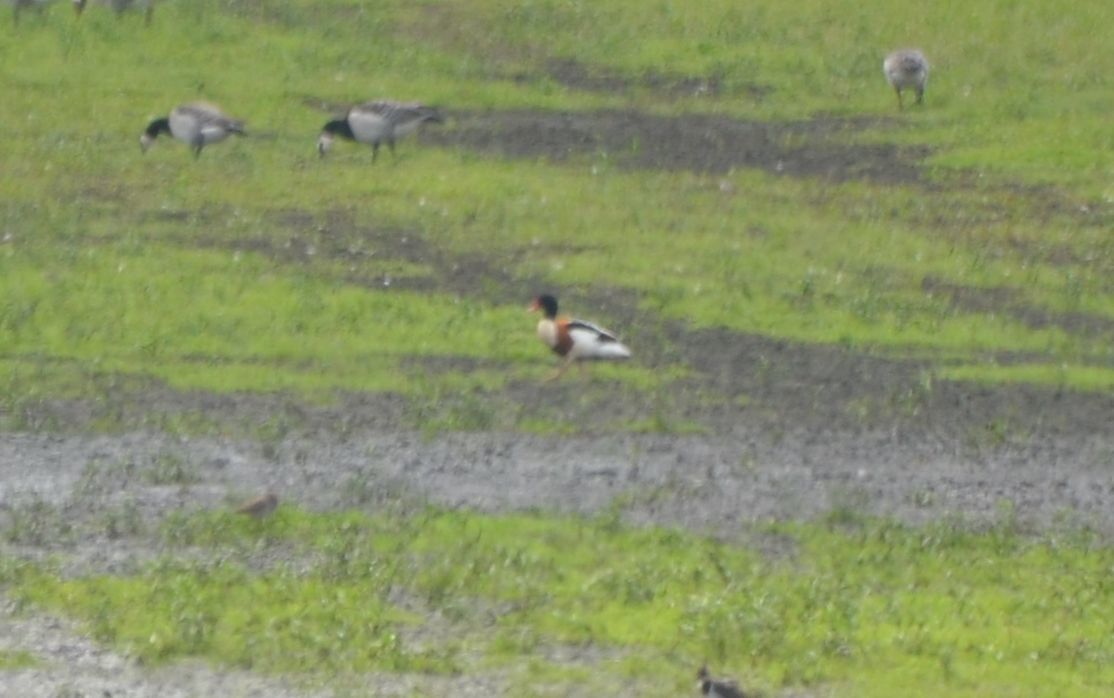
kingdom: Animalia
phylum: Chordata
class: Aves
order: Anseriformes
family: Anatidae
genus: Tadorna
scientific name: Tadorna tadorna
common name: Common shelduck
